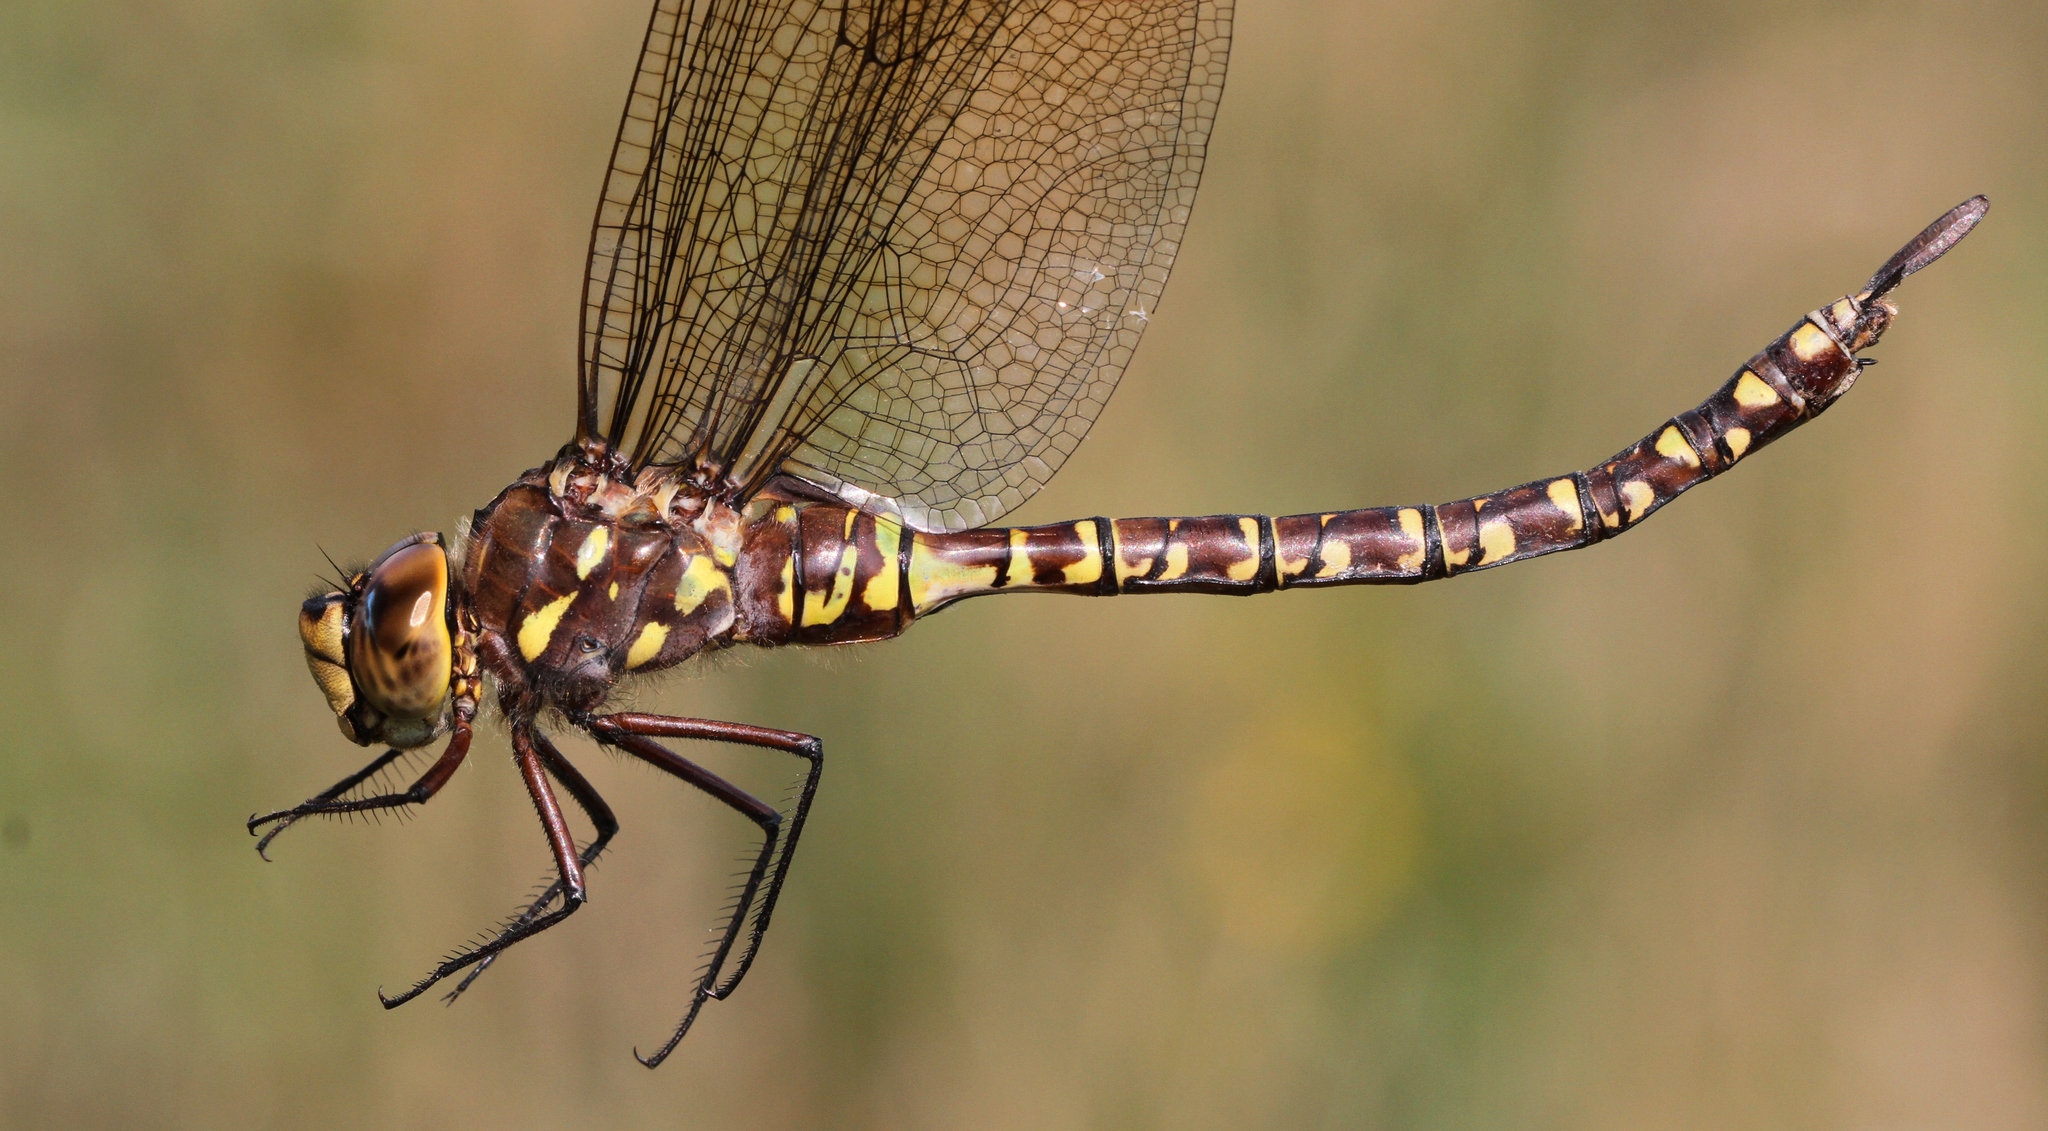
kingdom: Animalia
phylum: Arthropoda
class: Insecta
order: Odonata
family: Aeshnidae
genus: Aeshna
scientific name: Aeshna interrupta
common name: Variable darner
